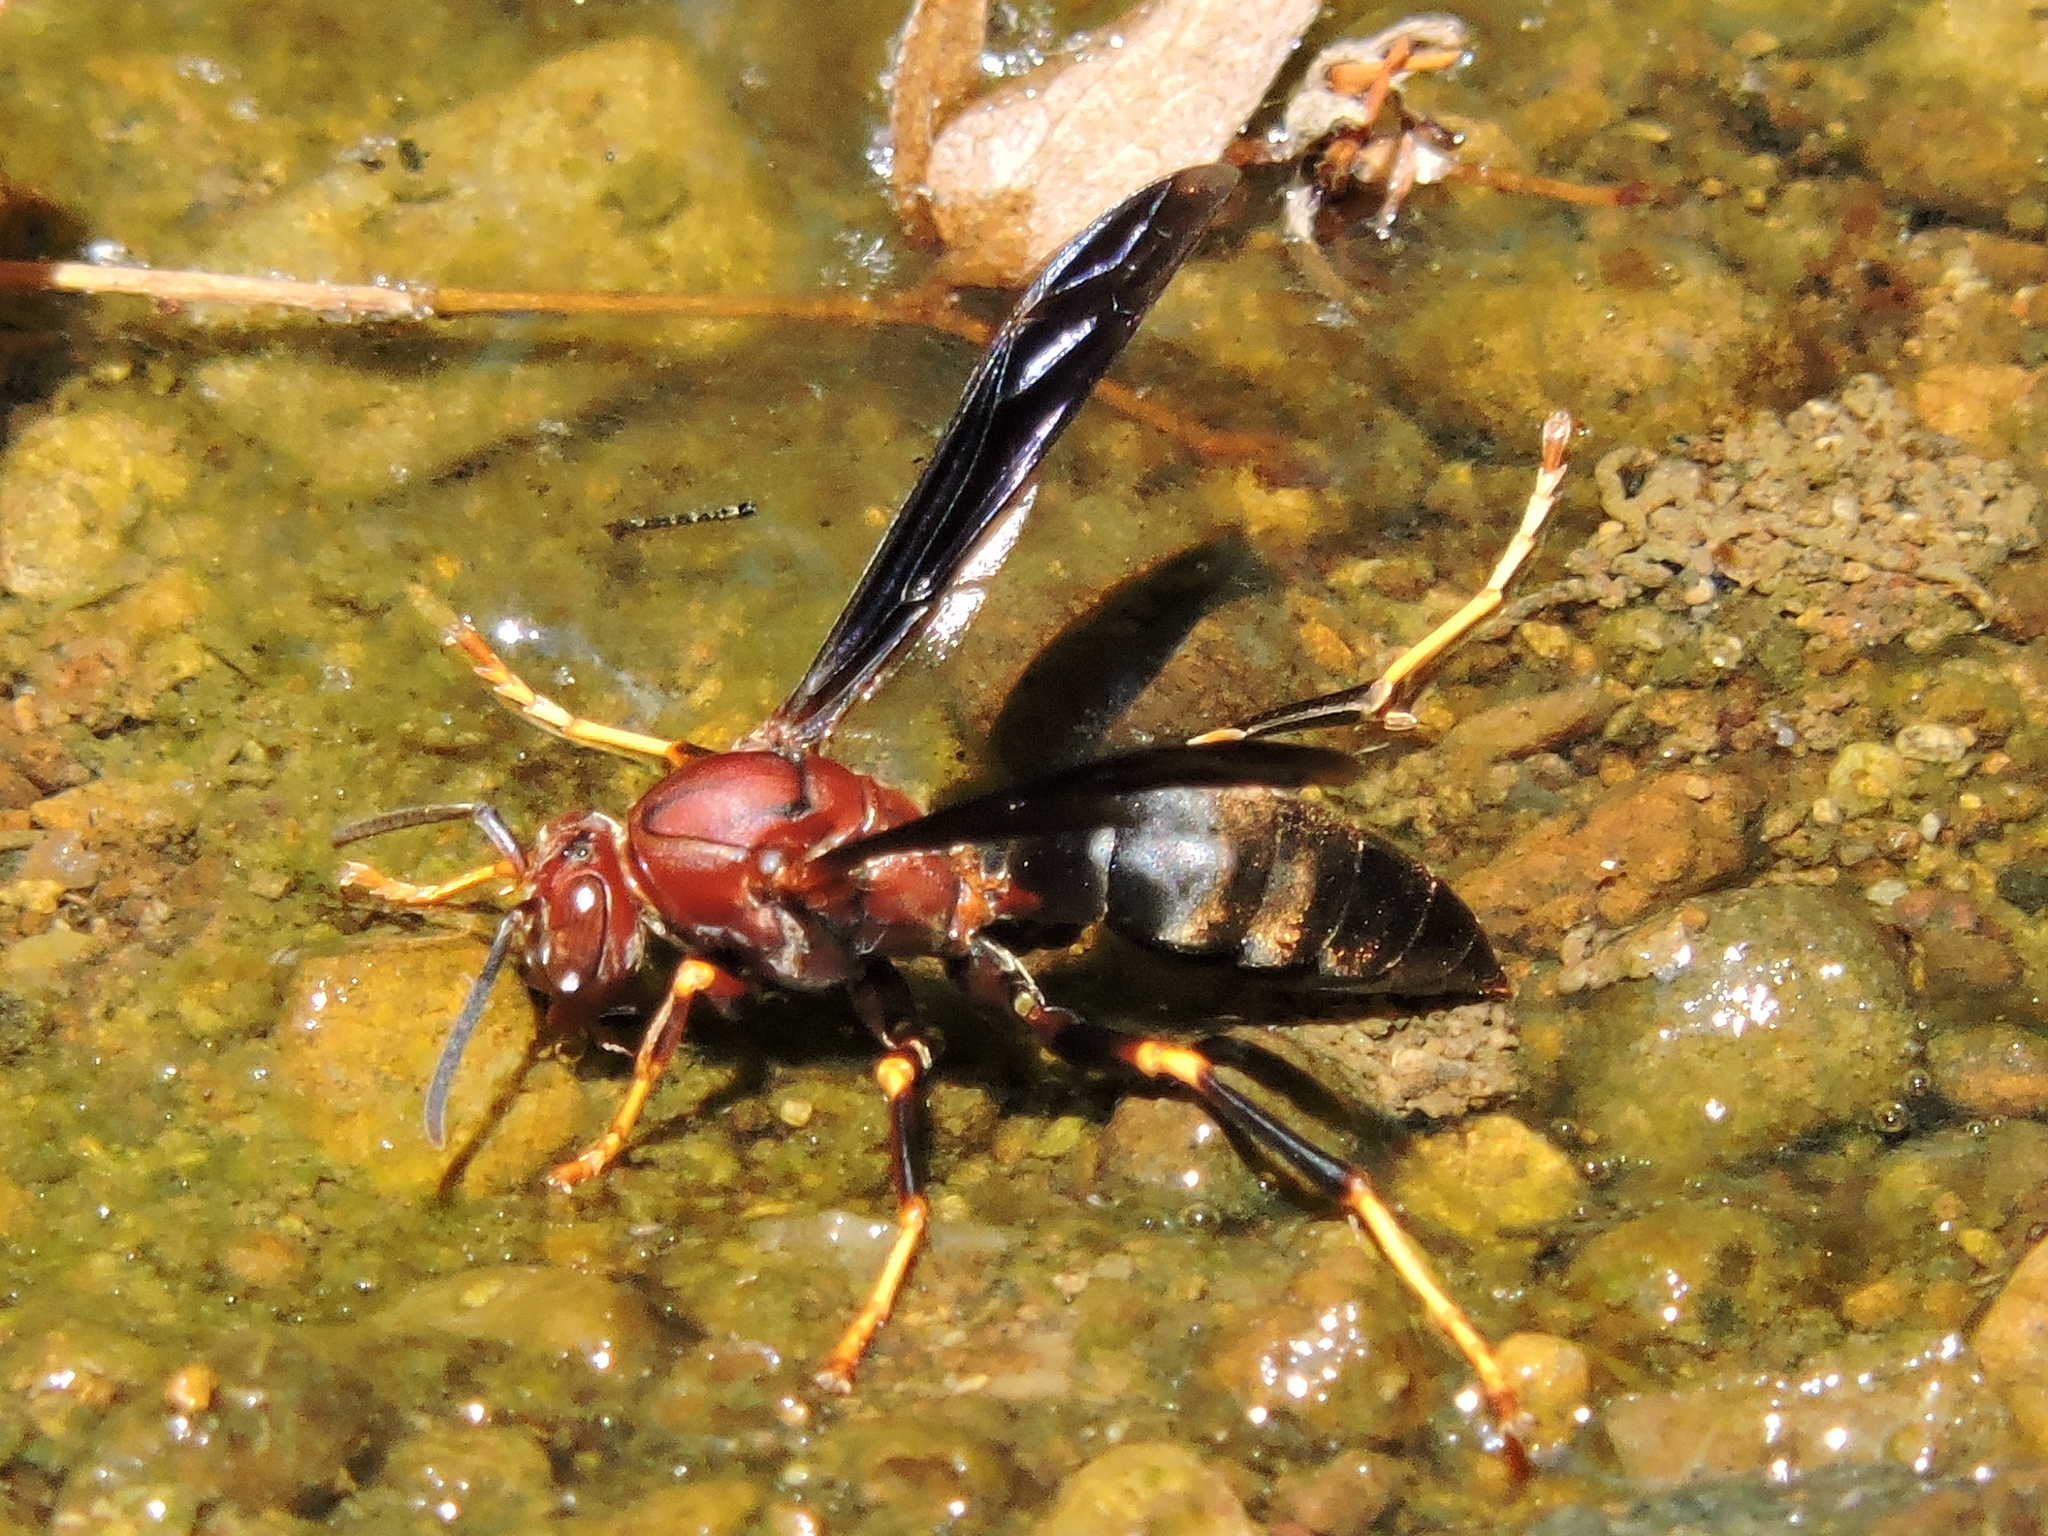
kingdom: Animalia
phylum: Arthropoda
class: Insecta
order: Hymenoptera
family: Eumenidae
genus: Polistes
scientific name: Polistes metricus
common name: Metric paper wasp
